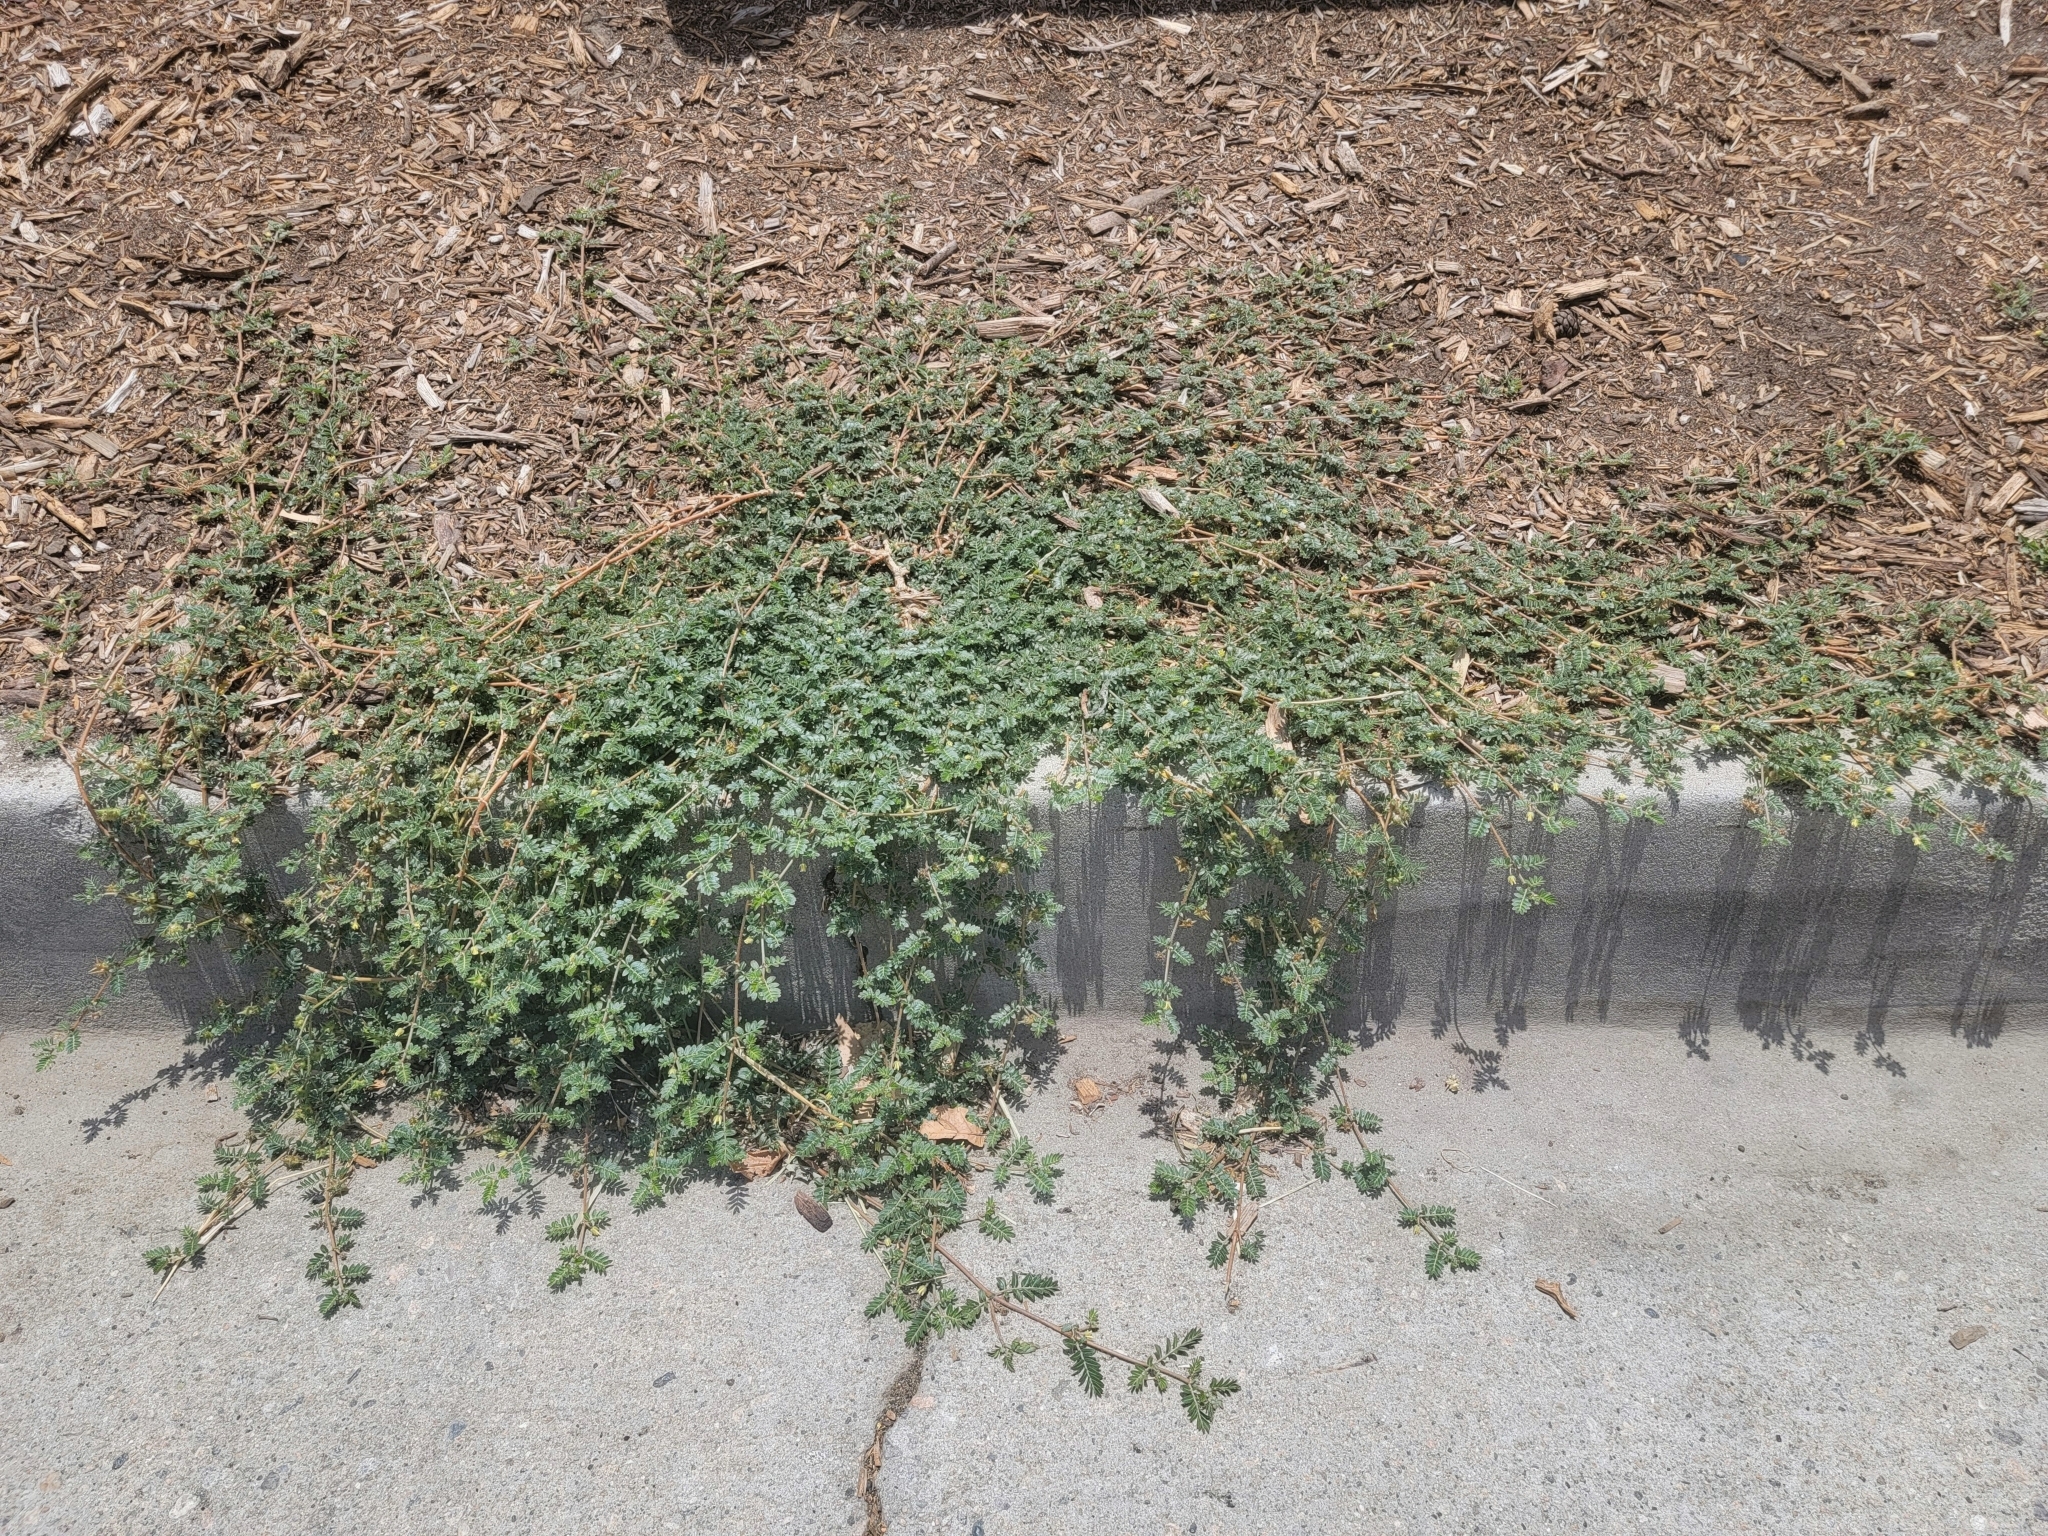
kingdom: Plantae
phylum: Tracheophyta
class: Magnoliopsida
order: Zygophyllales
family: Zygophyllaceae
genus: Tribulus
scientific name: Tribulus terrestris
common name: Puncturevine
